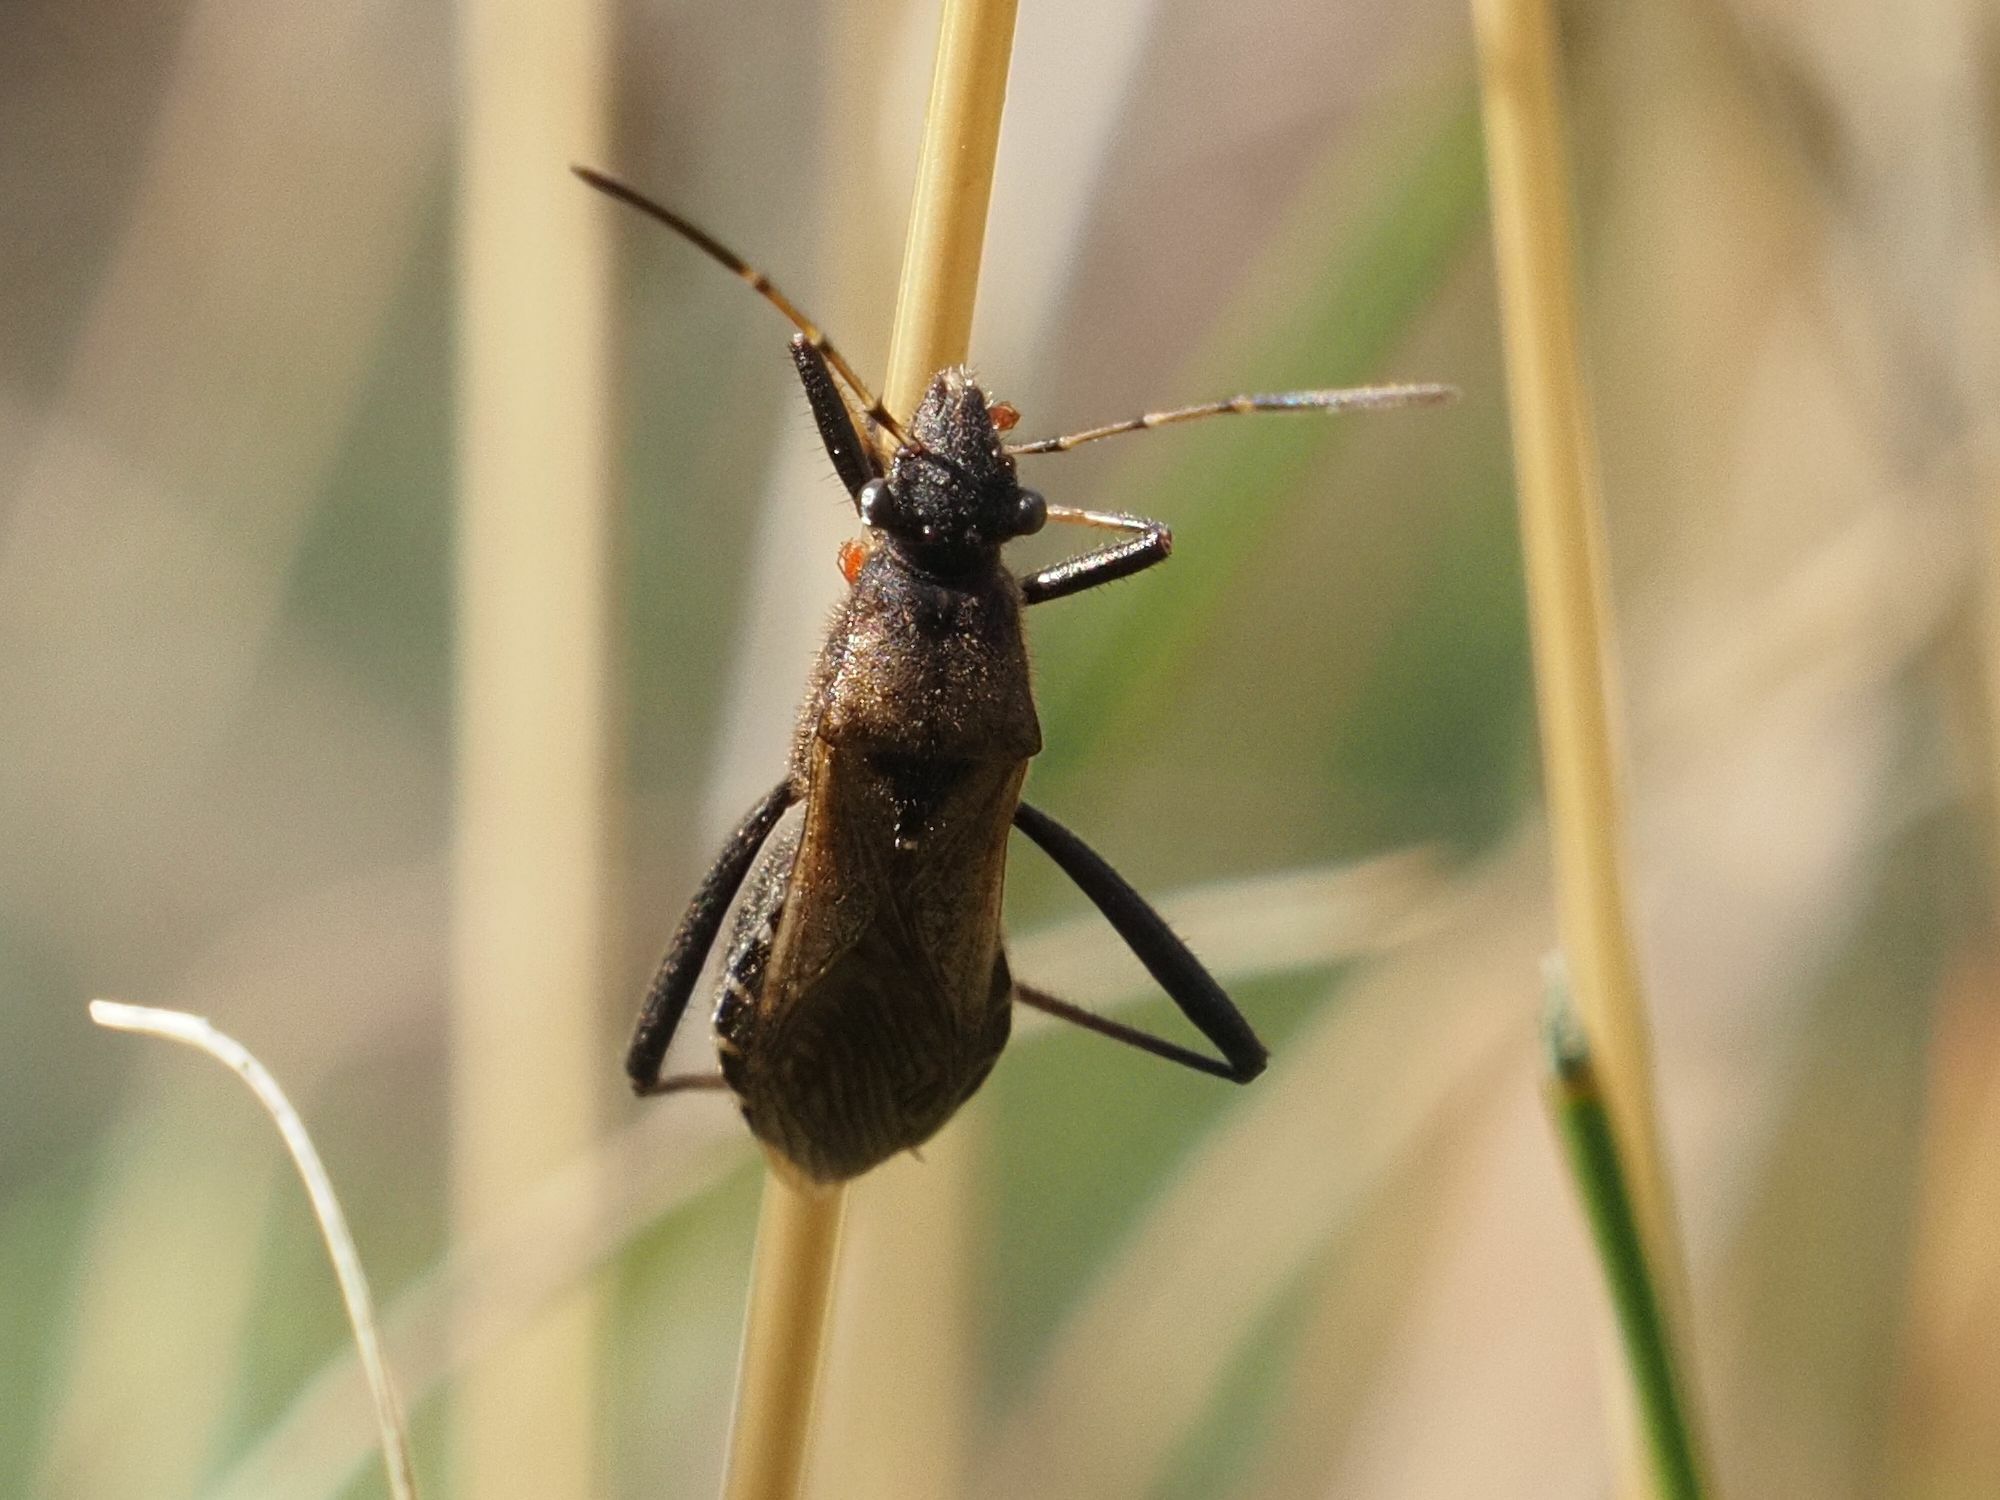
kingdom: Animalia
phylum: Arthropoda
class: Insecta
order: Hemiptera
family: Alydidae
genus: Alydus
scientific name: Alydus calcaratus
